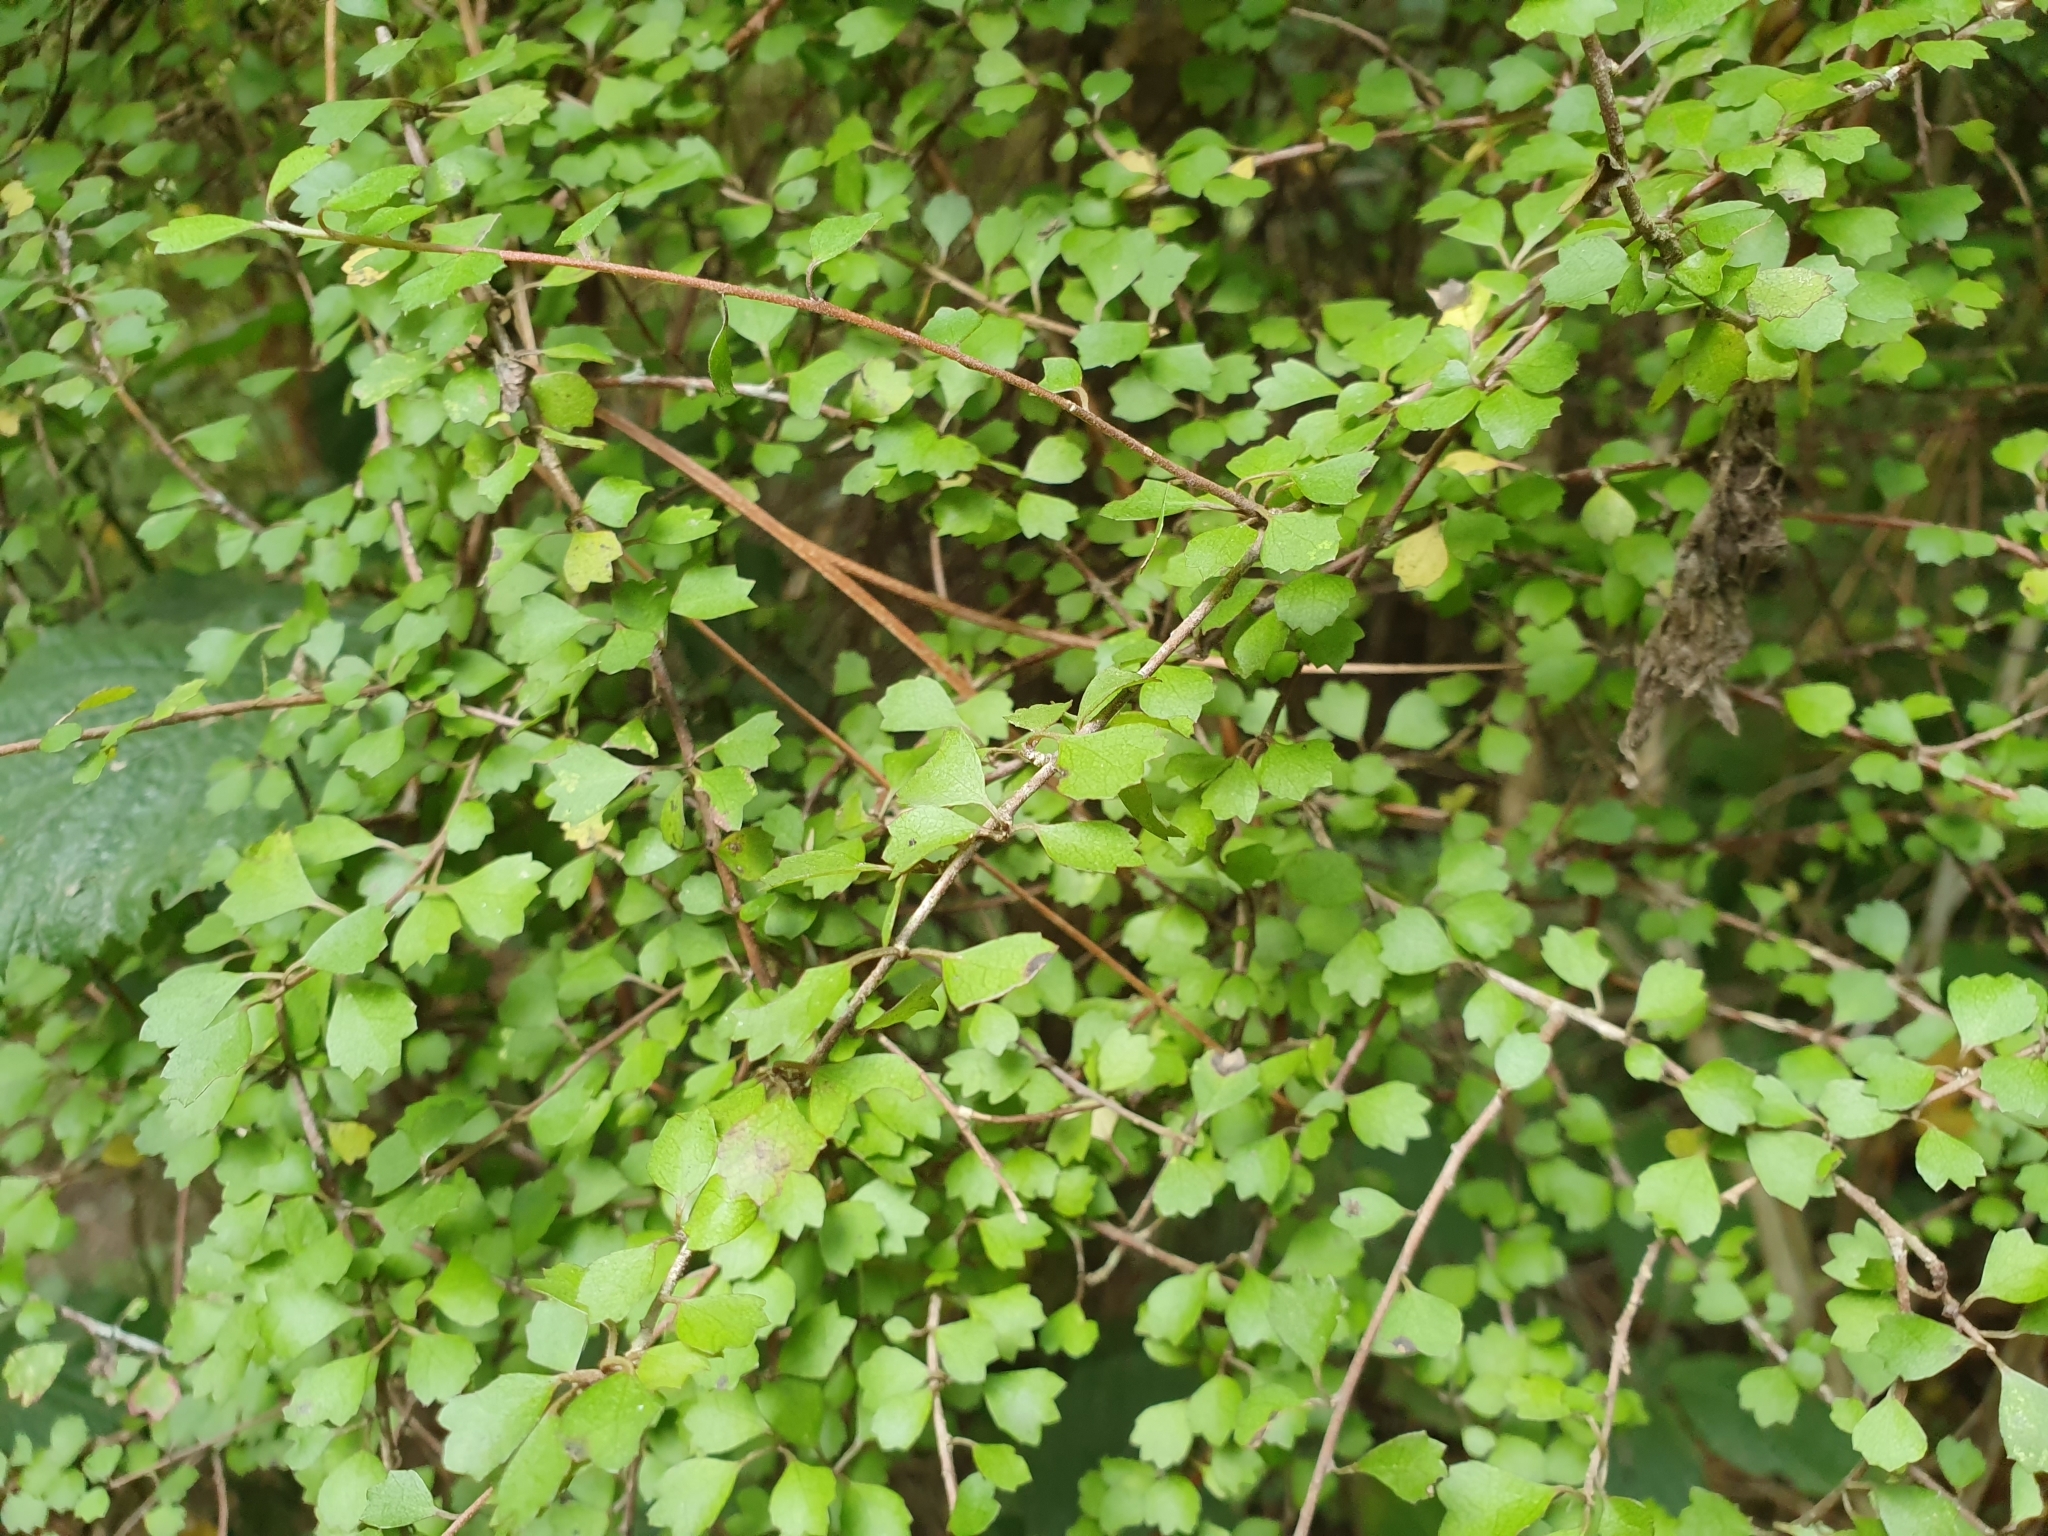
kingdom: Plantae
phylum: Tracheophyta
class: Magnoliopsida
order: Malvales
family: Malvaceae
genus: Hoheria
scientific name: Hoheria angustifolia
